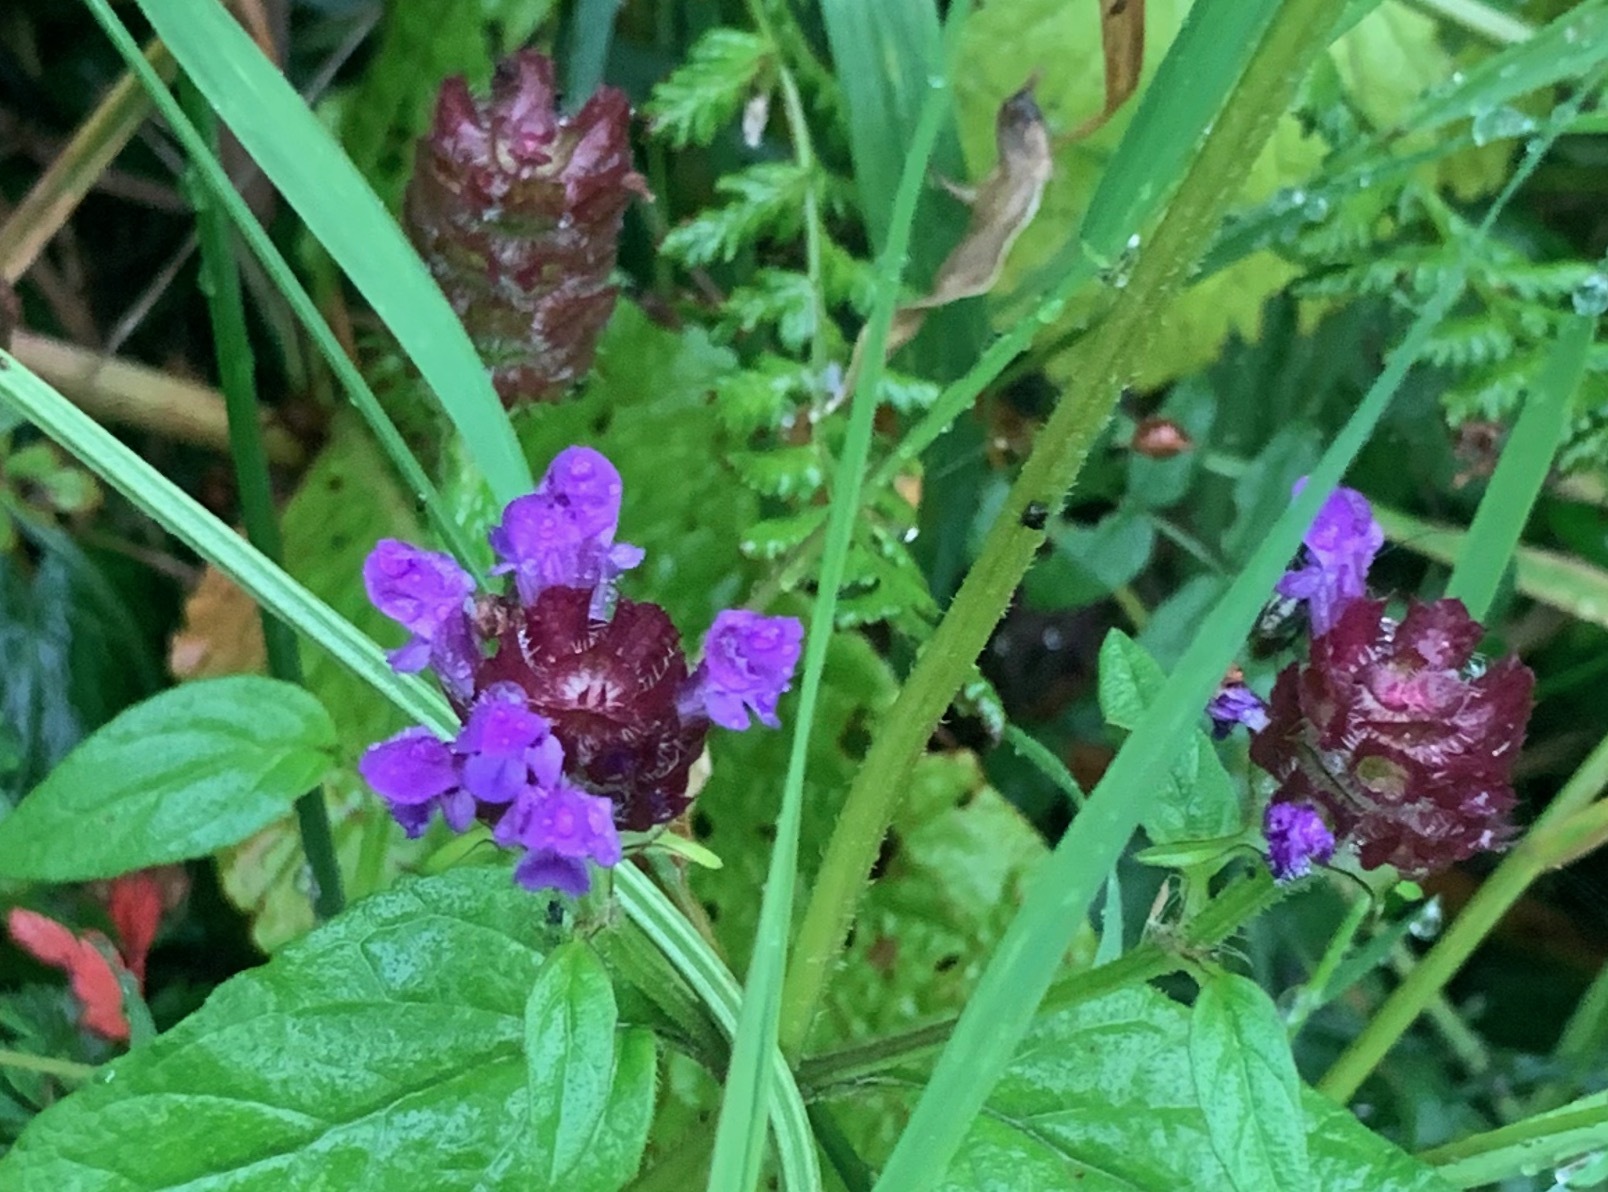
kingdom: Plantae
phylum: Tracheophyta
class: Magnoliopsida
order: Lamiales
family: Lamiaceae
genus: Prunella
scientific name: Prunella vulgaris
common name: Heal-all
